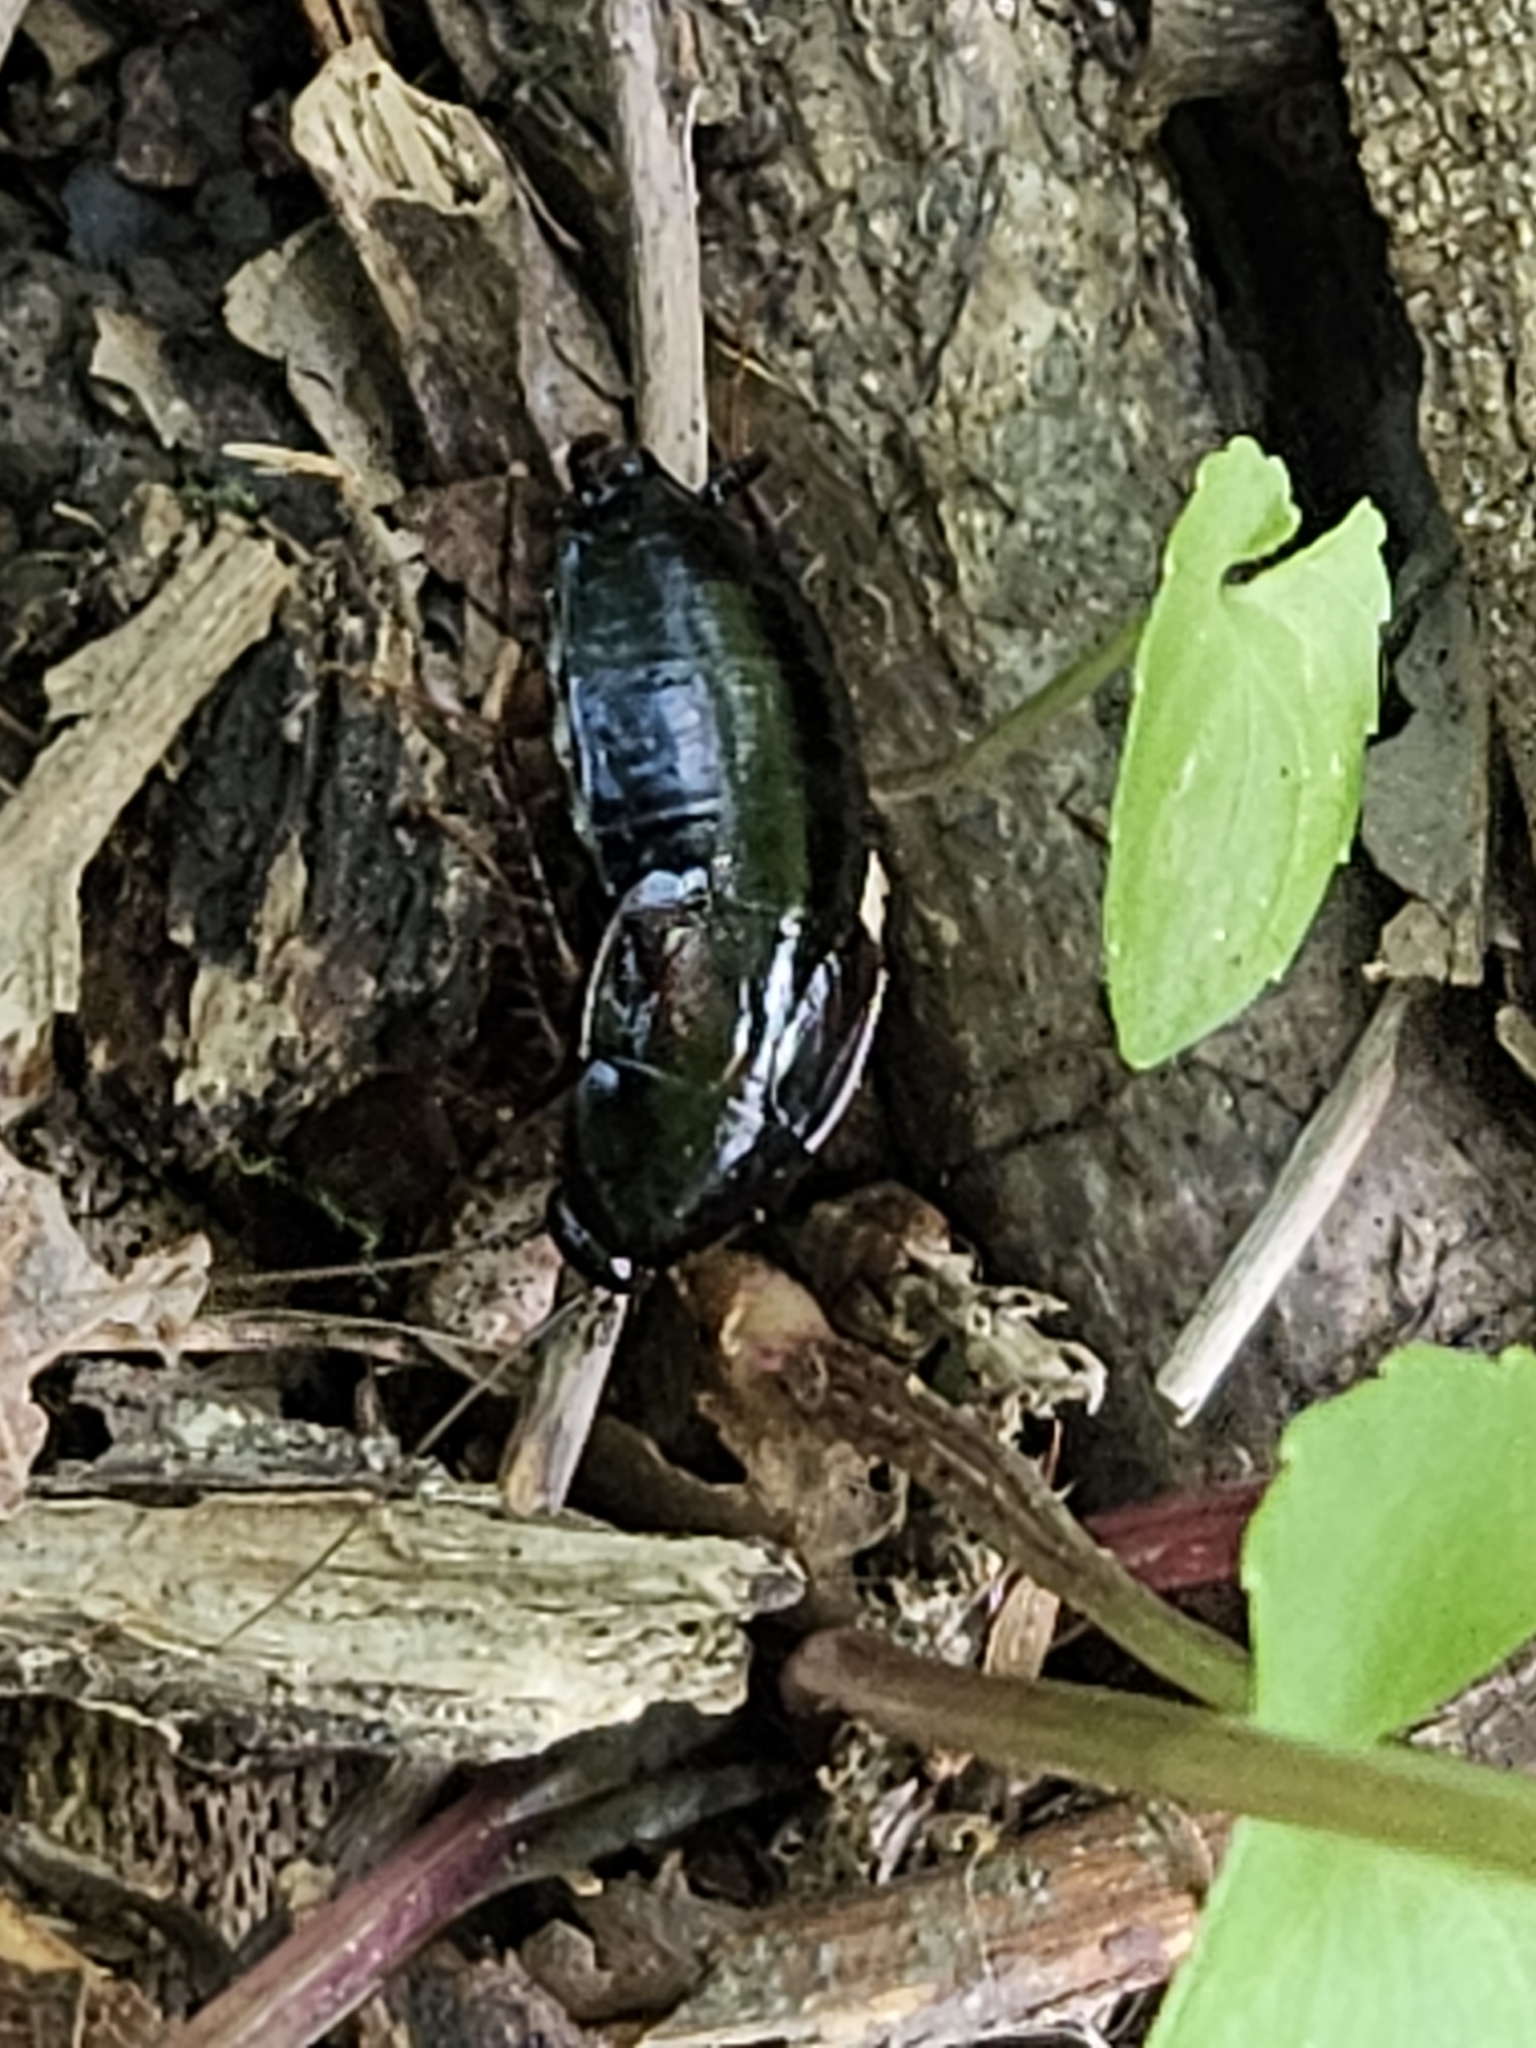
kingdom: Animalia
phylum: Arthropoda
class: Insecta
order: Blattodea
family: Ectobiidae
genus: Parcoblatta
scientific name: Parcoblatta uhleriana
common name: Uhler's wood cockroach
